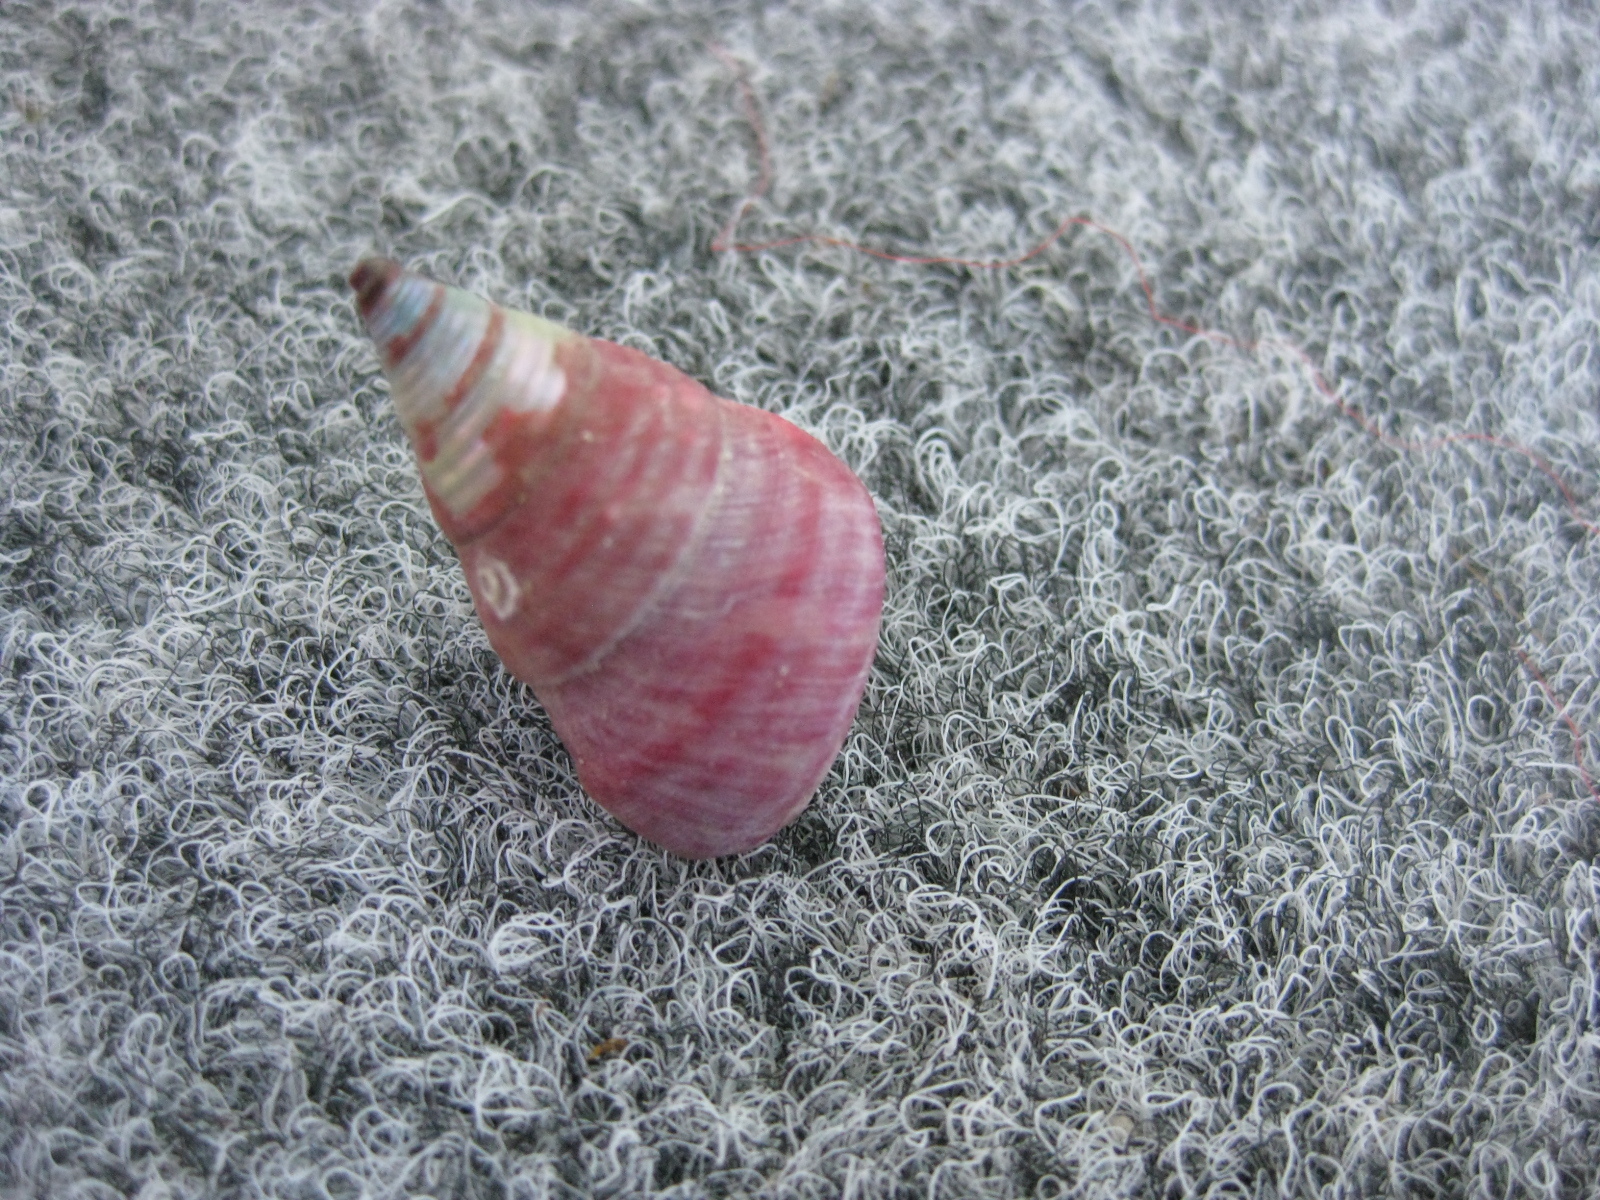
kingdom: Animalia
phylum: Mollusca
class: Gastropoda
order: Trochida
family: Trochidae
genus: Micrelenchus
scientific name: Micrelenchus purpureus
